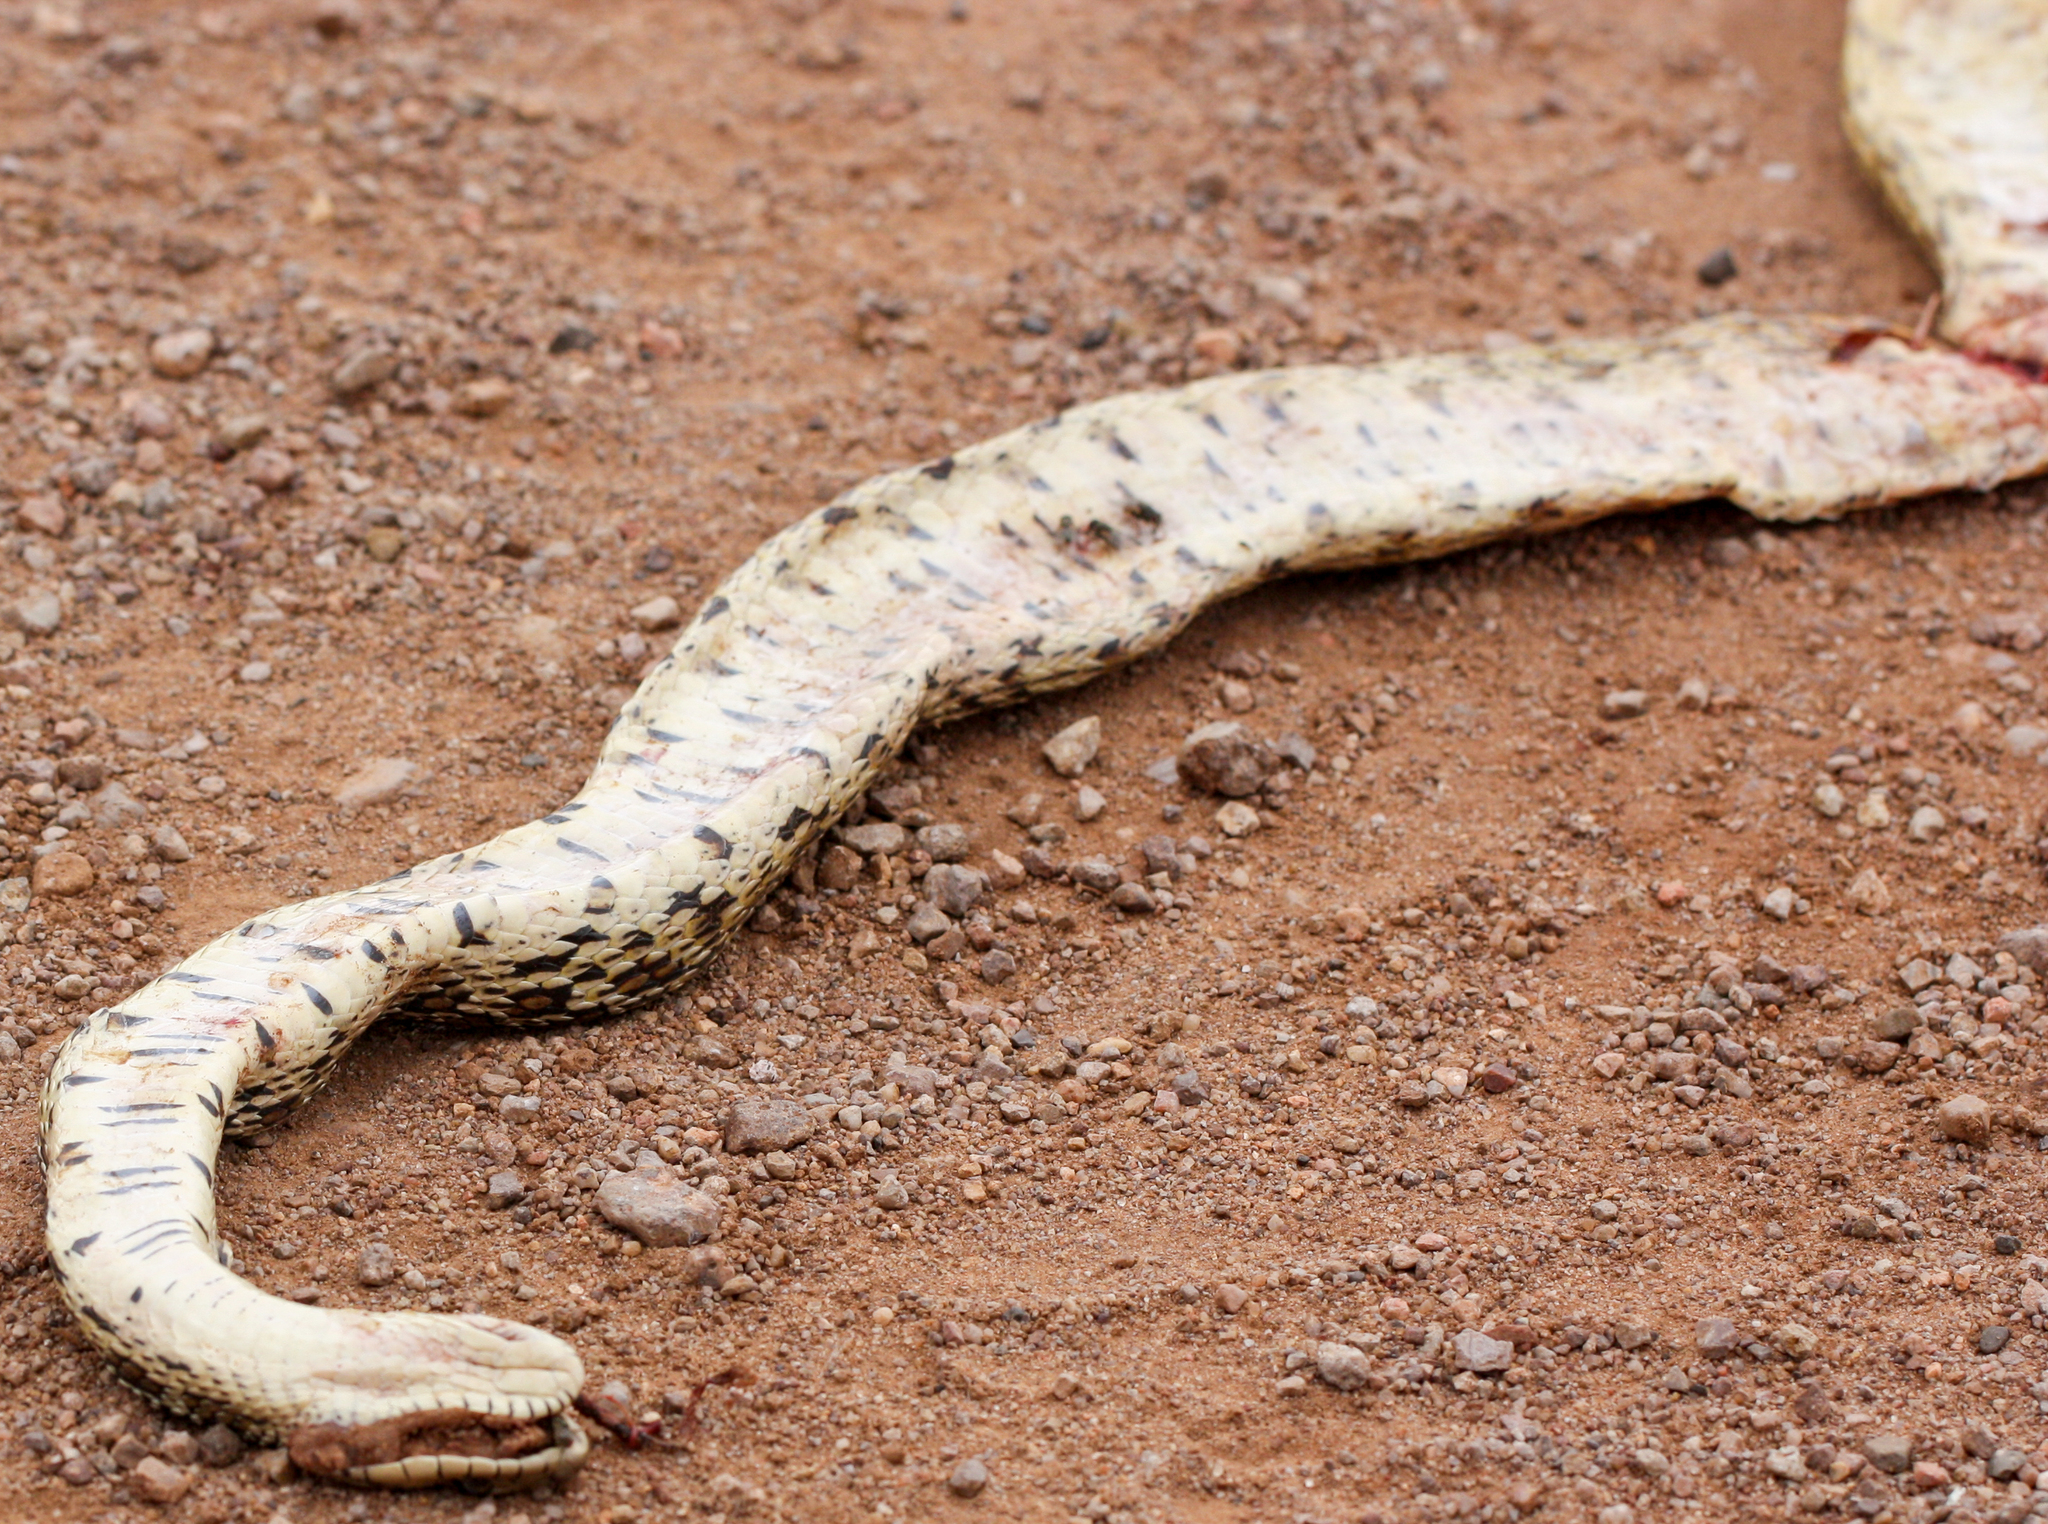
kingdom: Animalia
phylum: Chordata
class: Squamata
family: Colubridae
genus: Pituophis
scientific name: Pituophis catenifer
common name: Gopher snake
